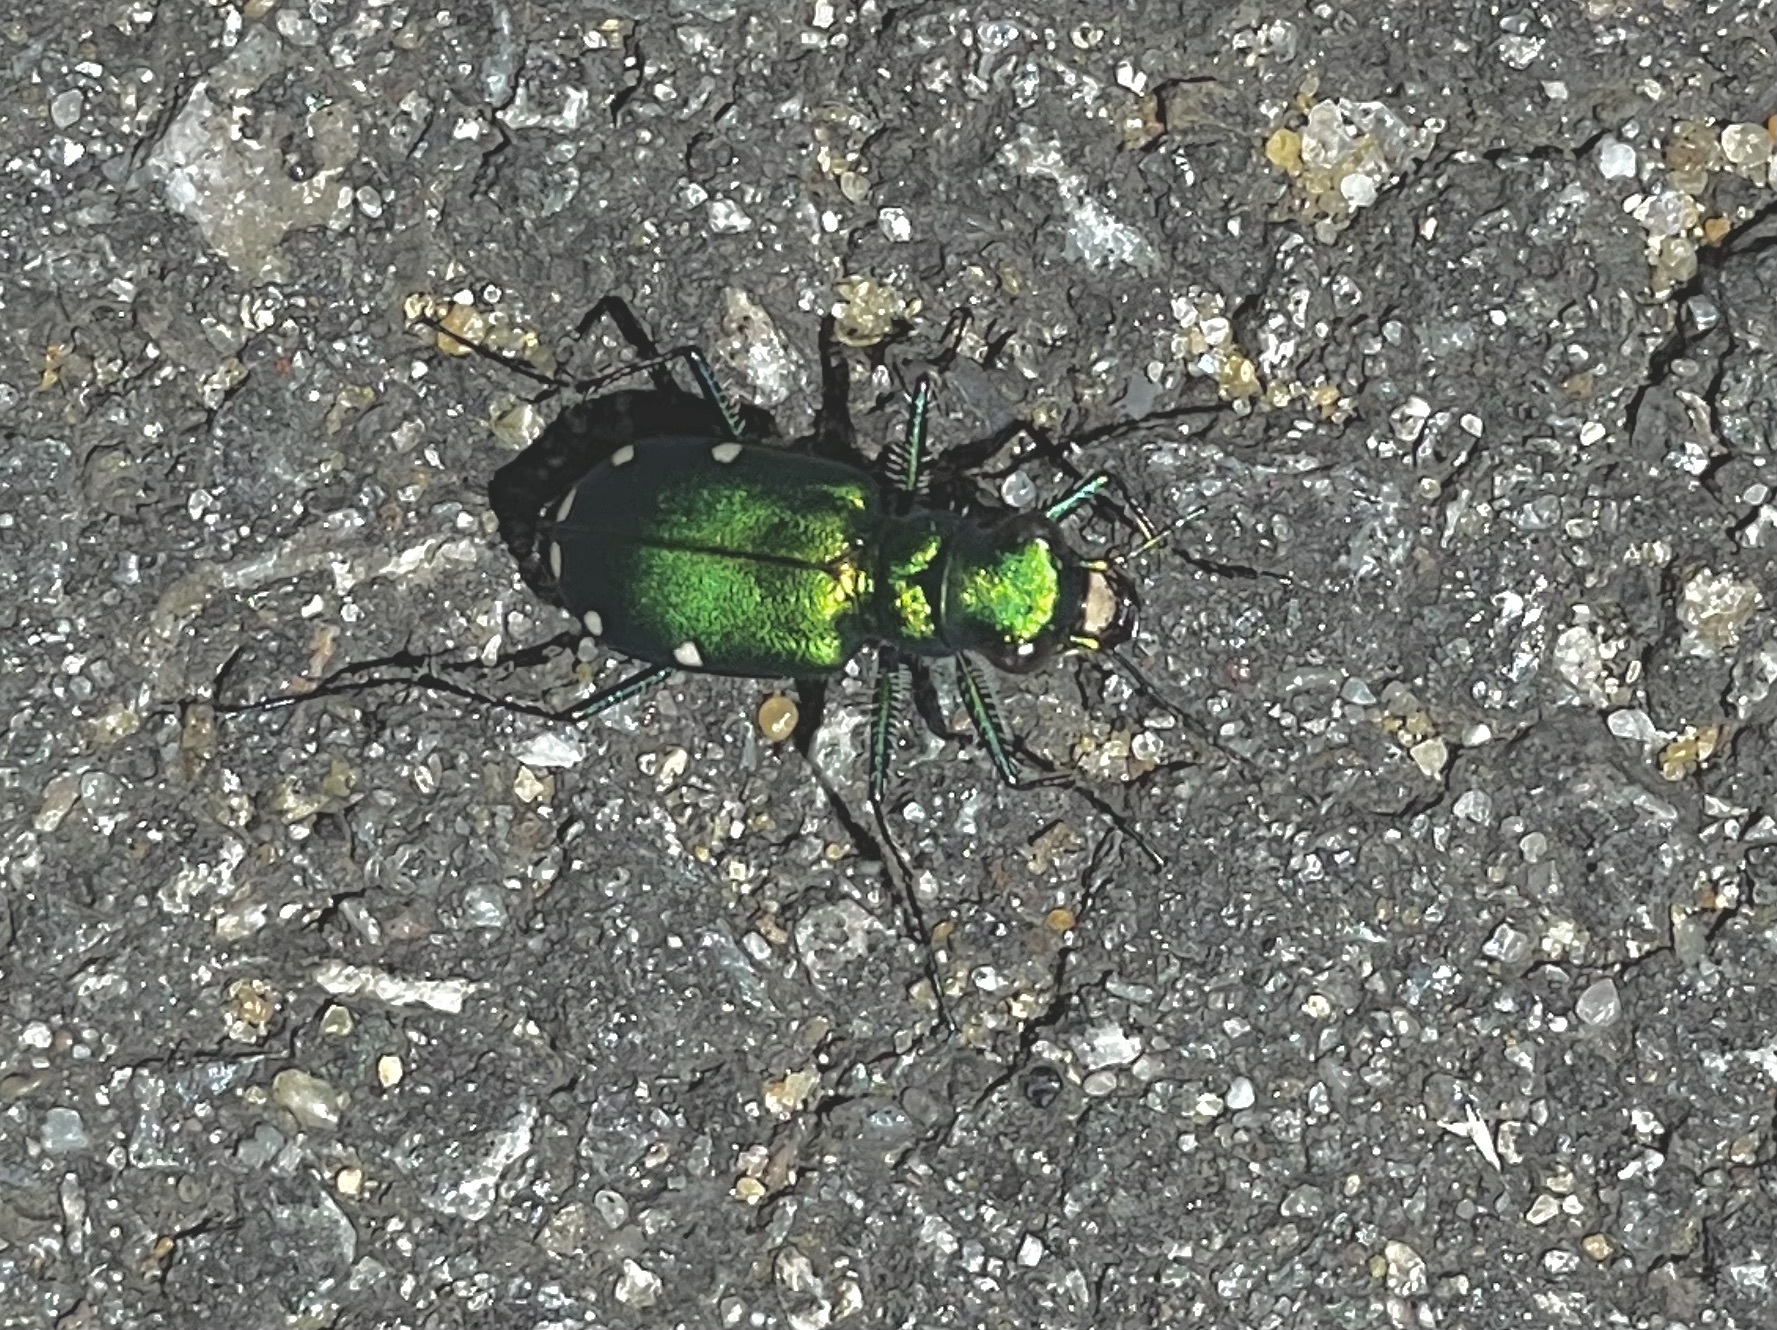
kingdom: Animalia
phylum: Arthropoda
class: Insecta
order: Coleoptera
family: Carabidae
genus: Cicindela
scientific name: Cicindela sexguttata
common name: Six-spotted tiger beetle
